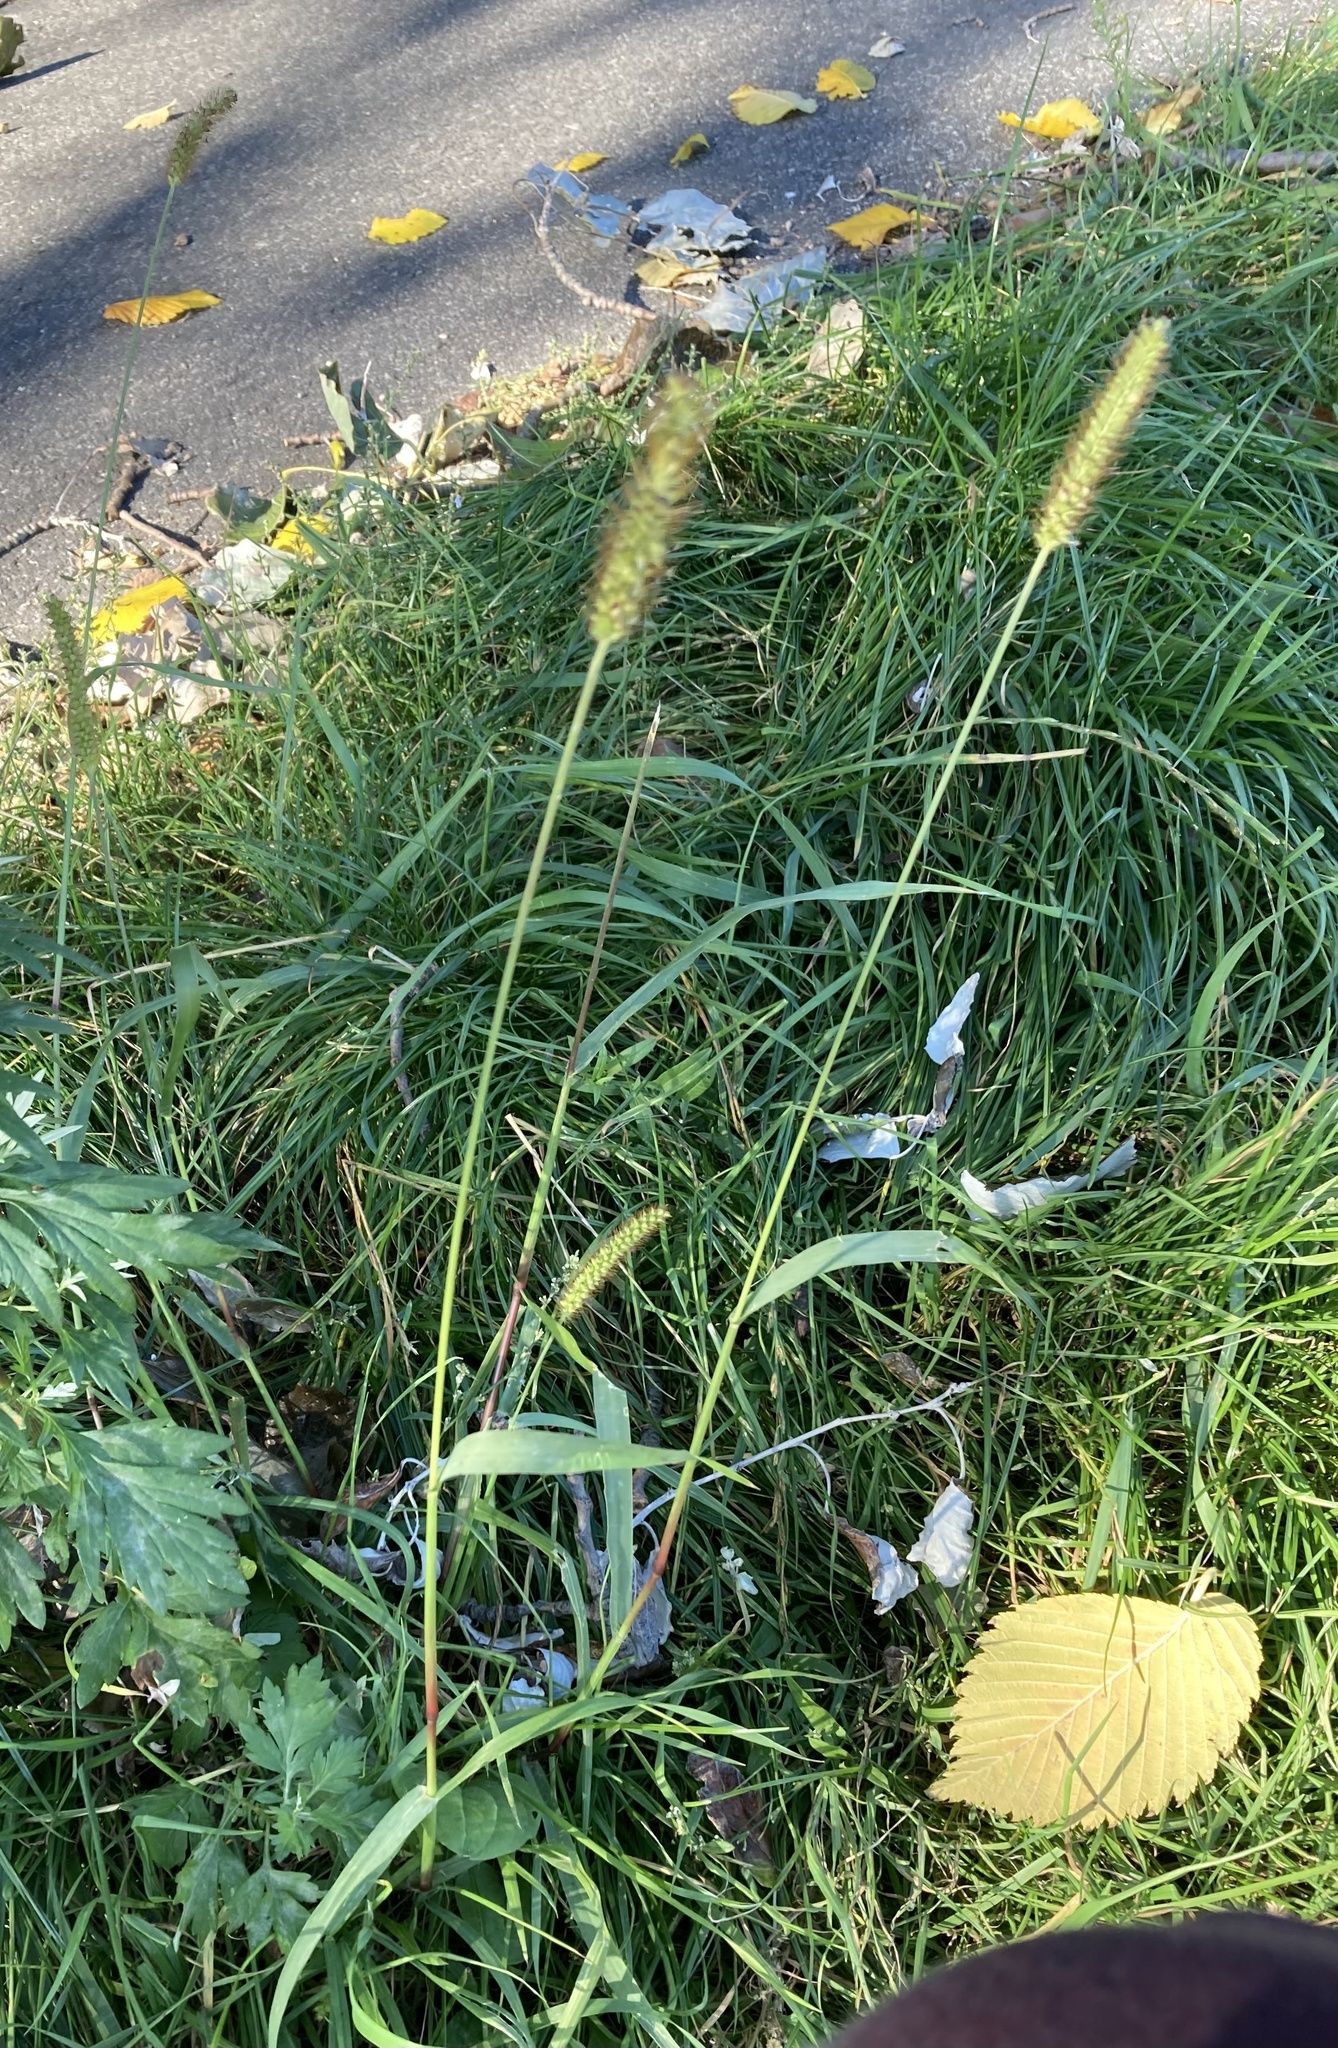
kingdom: Plantae
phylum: Tracheophyta
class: Liliopsida
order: Poales
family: Poaceae
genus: Setaria
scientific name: Setaria pumila
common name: Yellow bristle-grass
